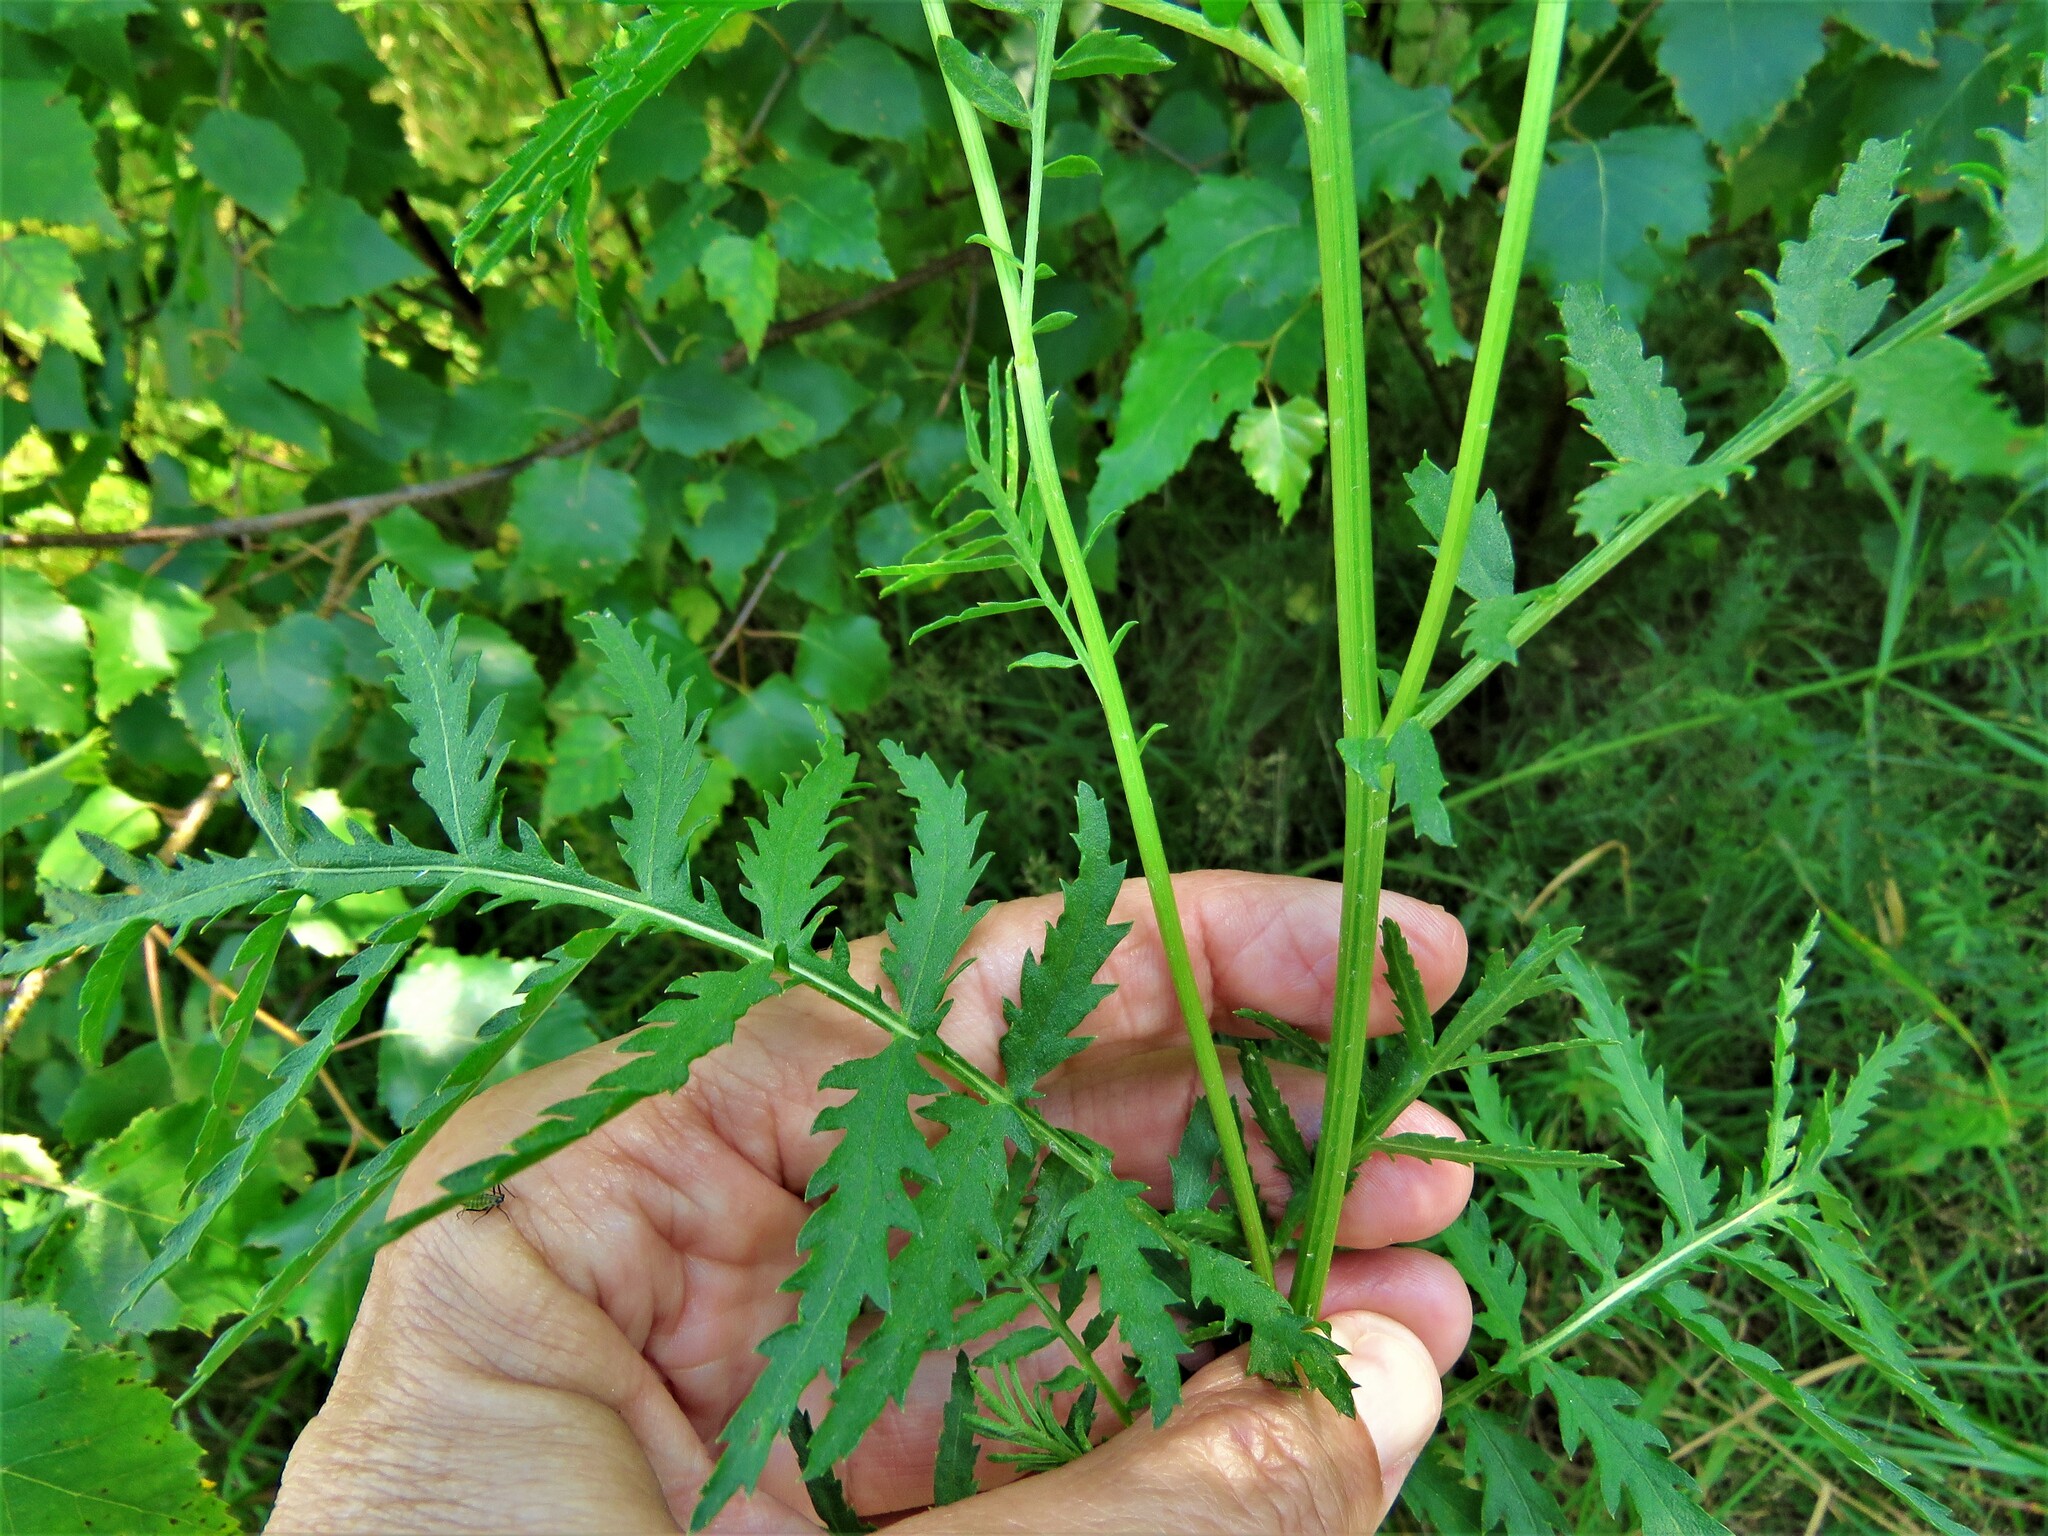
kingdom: Plantae
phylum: Tracheophyta
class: Magnoliopsida
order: Asterales
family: Asteraceae
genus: Tanacetum
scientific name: Tanacetum vulgare
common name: Common tansy
